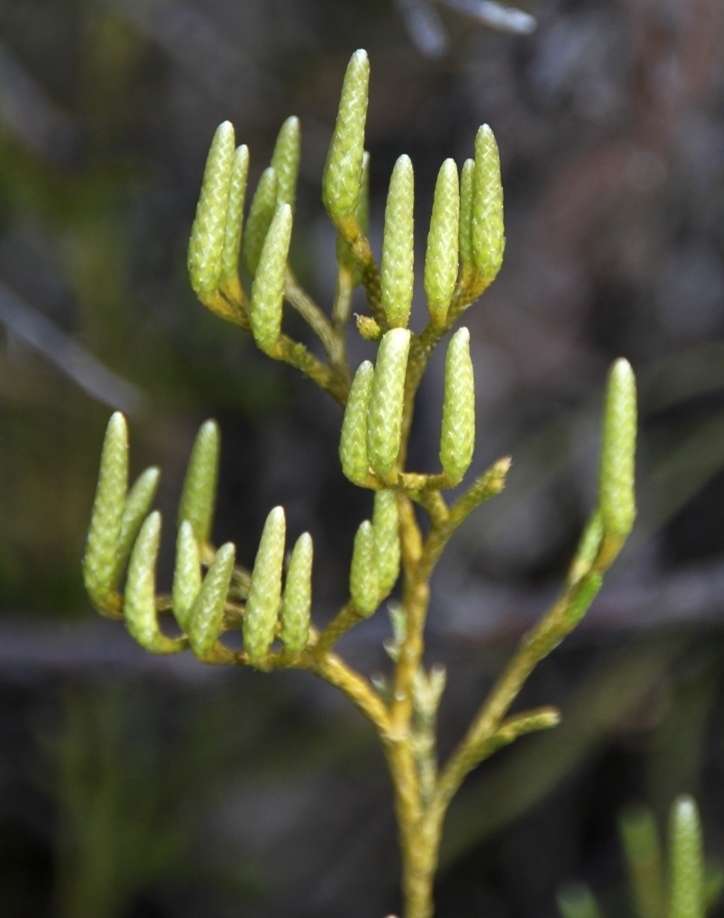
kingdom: Plantae
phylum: Tracheophyta
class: Lycopodiopsida
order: Lycopodiales
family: Lycopodiaceae
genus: Pseudolycopodium
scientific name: Pseudolycopodium densum
